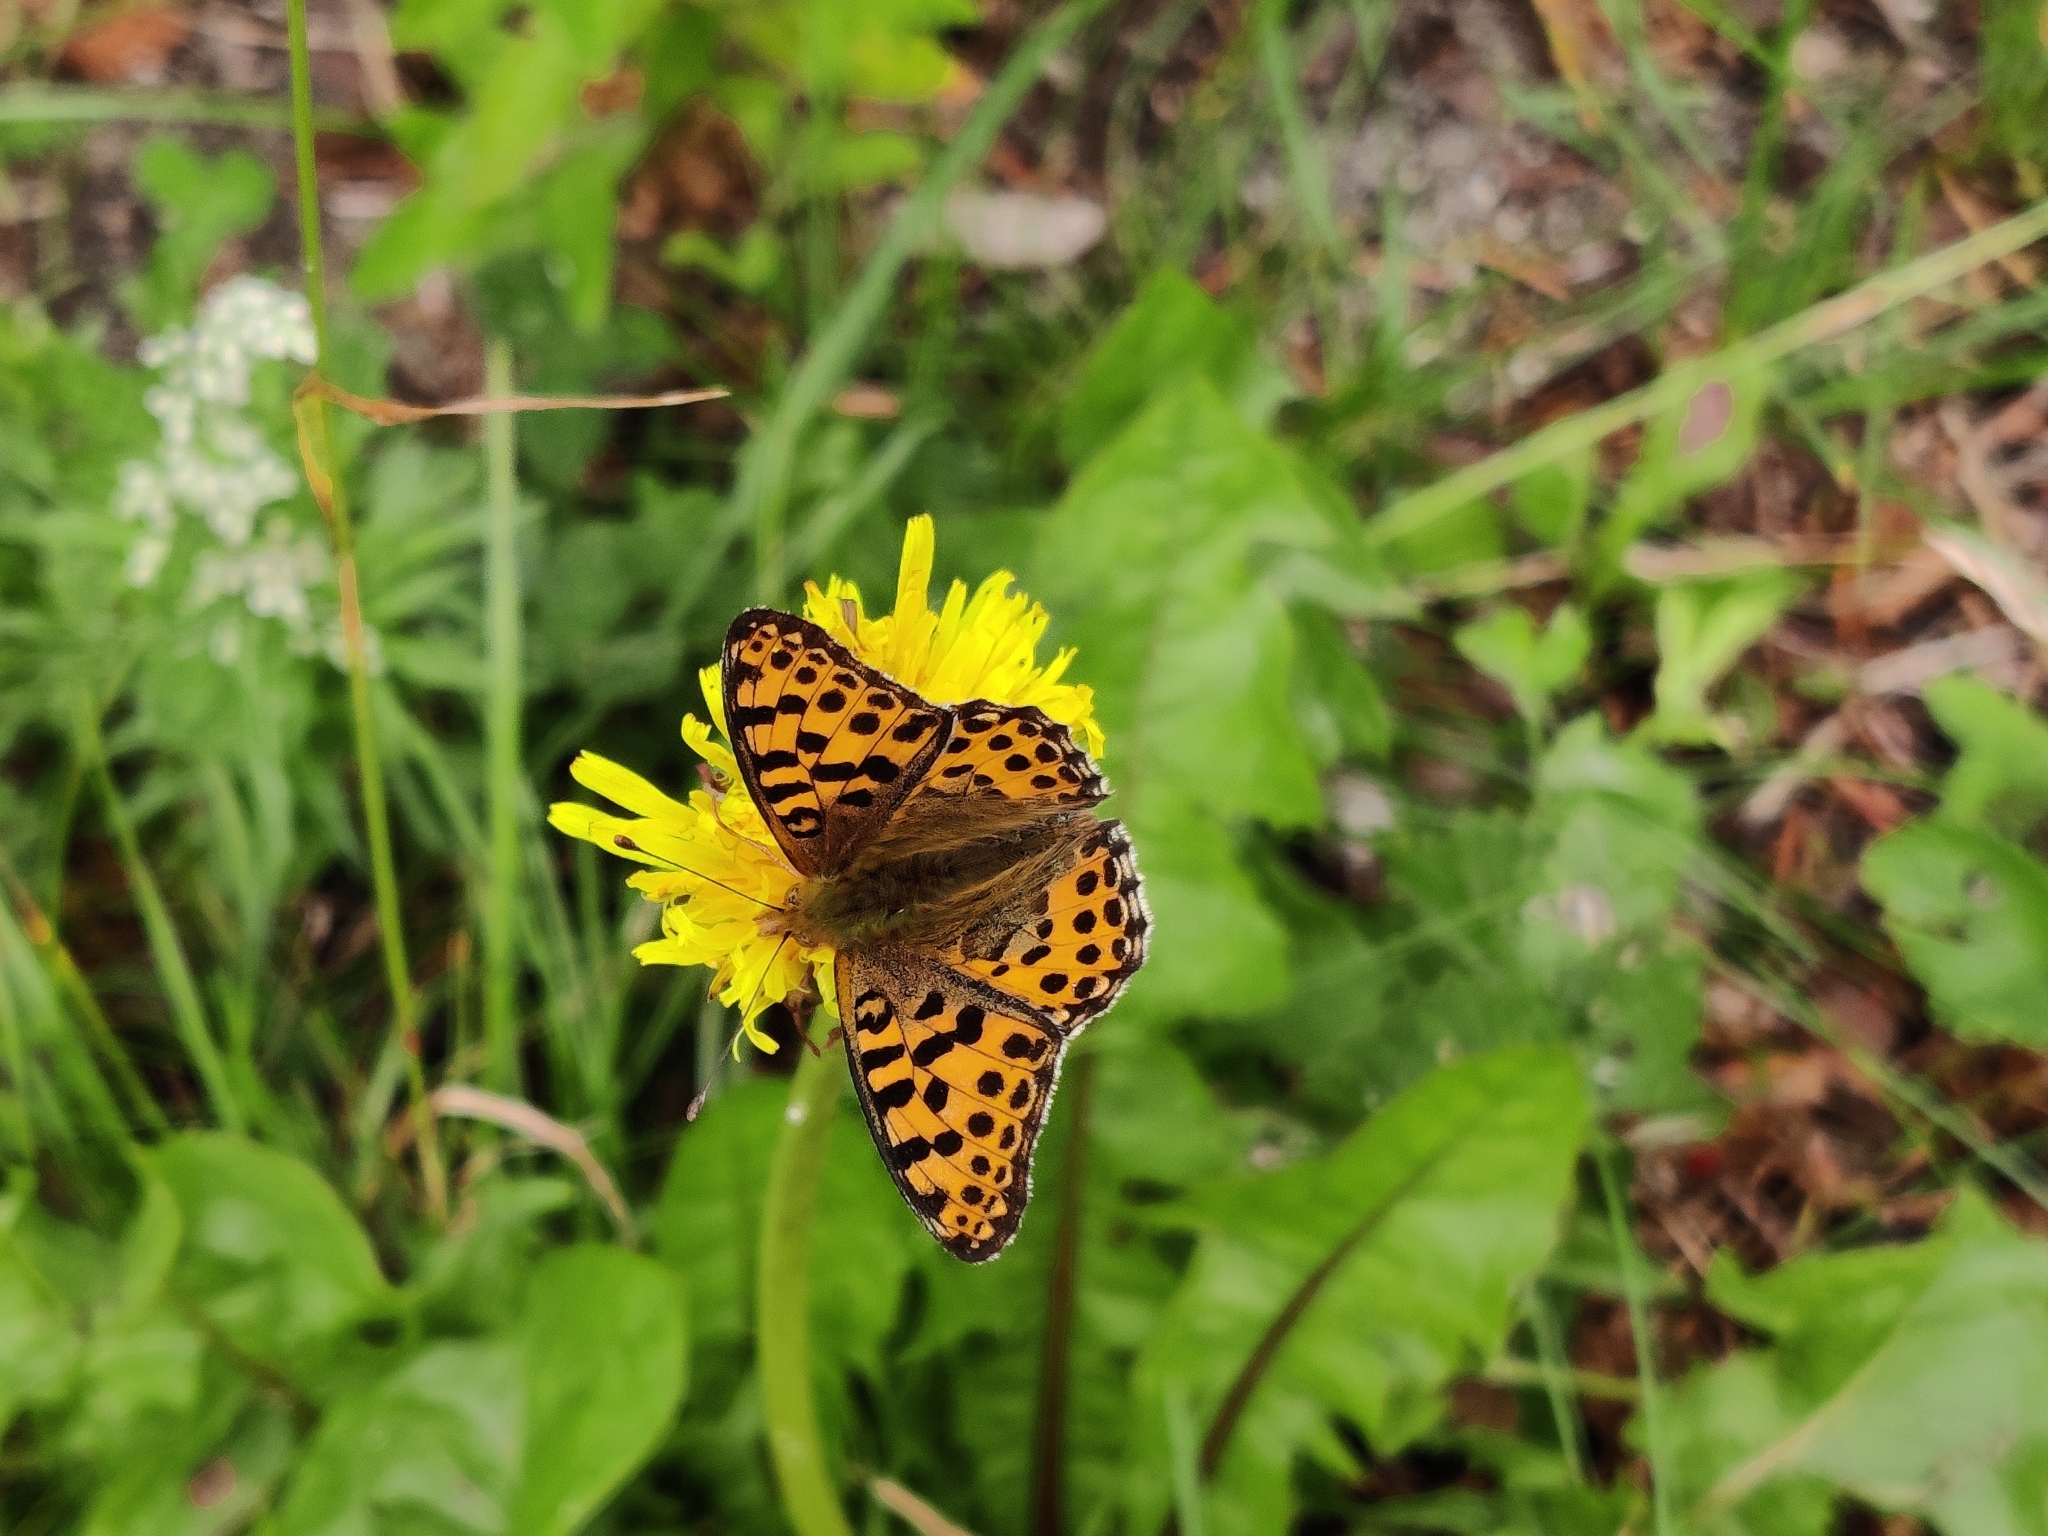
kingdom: Animalia
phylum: Arthropoda
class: Insecta
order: Lepidoptera
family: Nymphalidae
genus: Issoria
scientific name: Issoria lathonia
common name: Queen of spain fritillary
